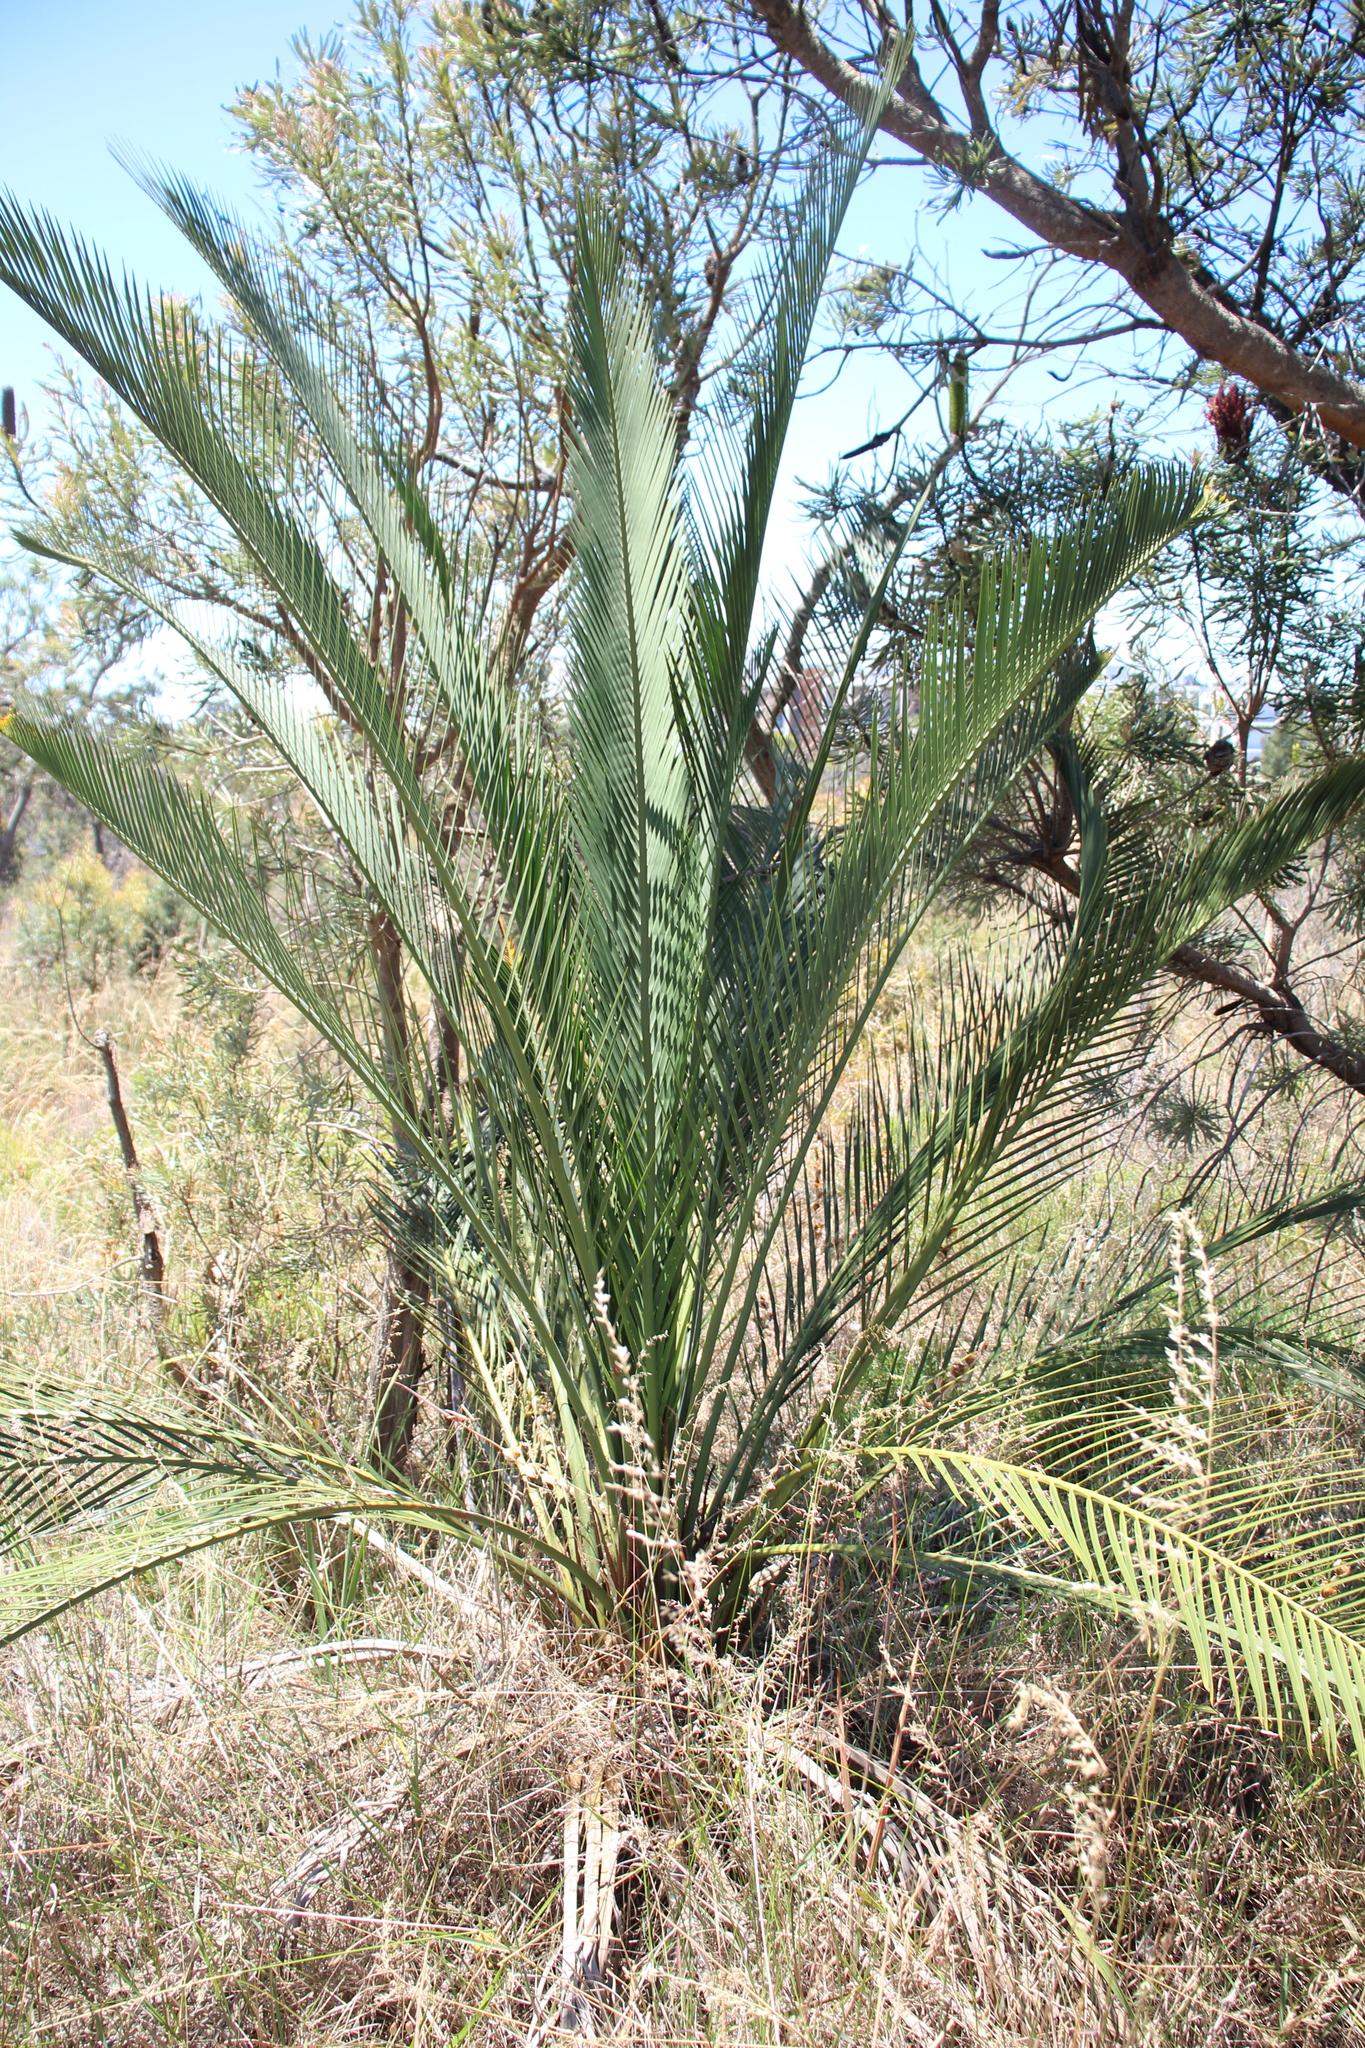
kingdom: Plantae
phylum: Tracheophyta
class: Cycadopsida
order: Cycadales
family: Zamiaceae
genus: Macrozamia
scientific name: Macrozamia fraseri
